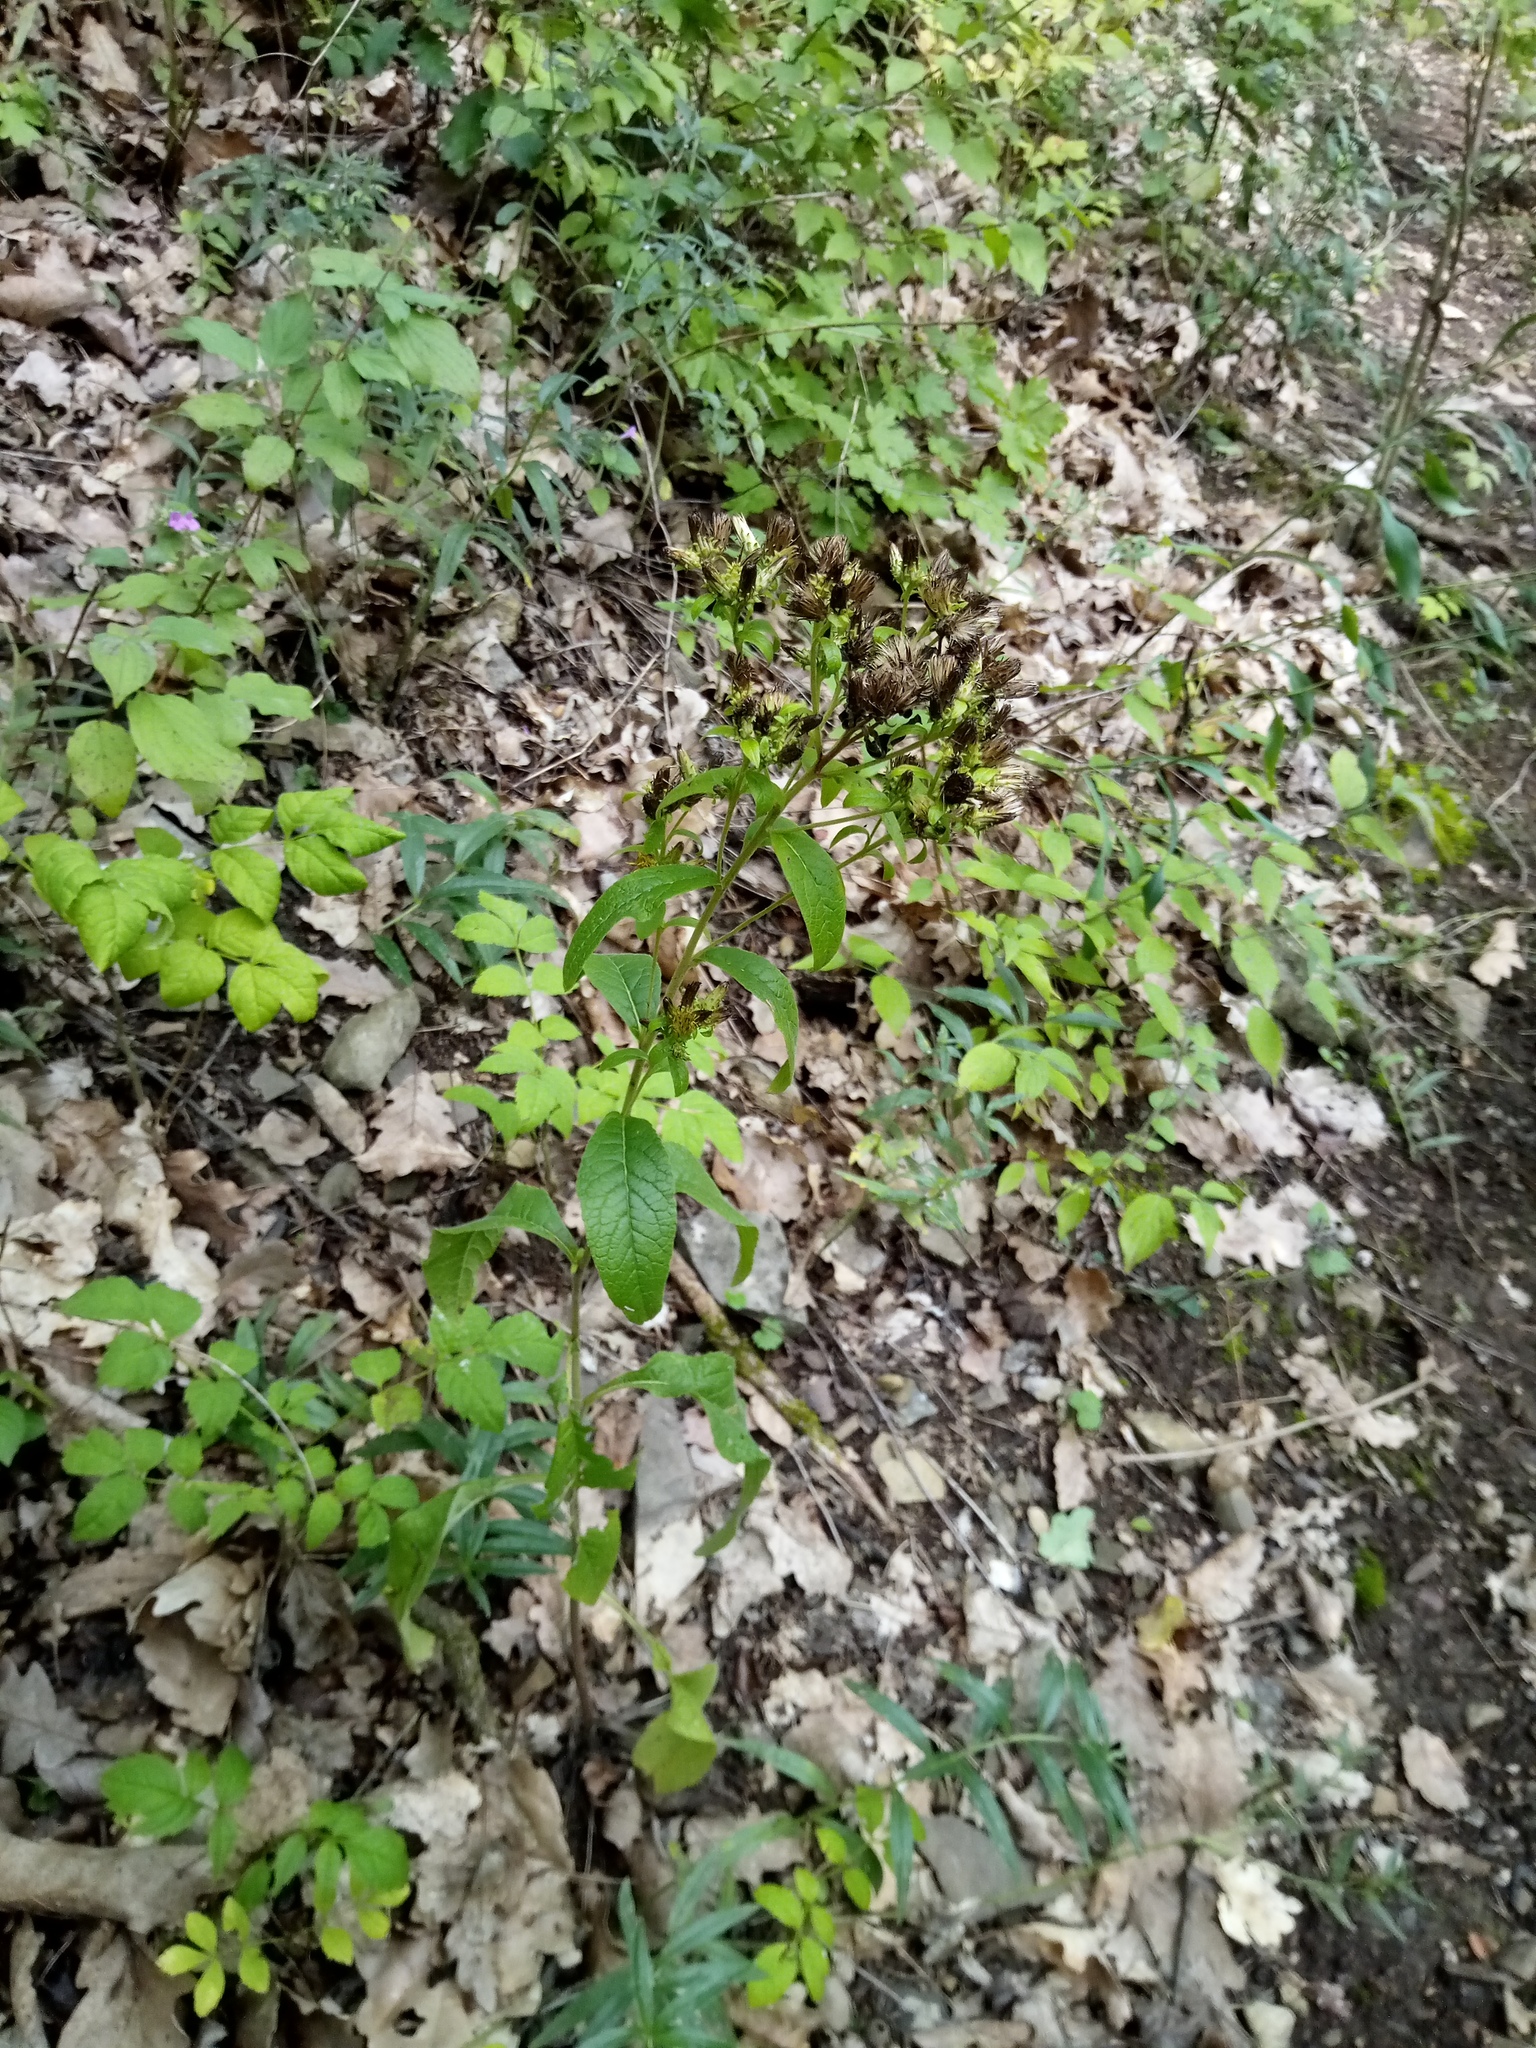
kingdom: Plantae
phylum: Tracheophyta
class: Magnoliopsida
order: Asterales
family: Asteraceae
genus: Pentanema
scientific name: Pentanema squarrosum
